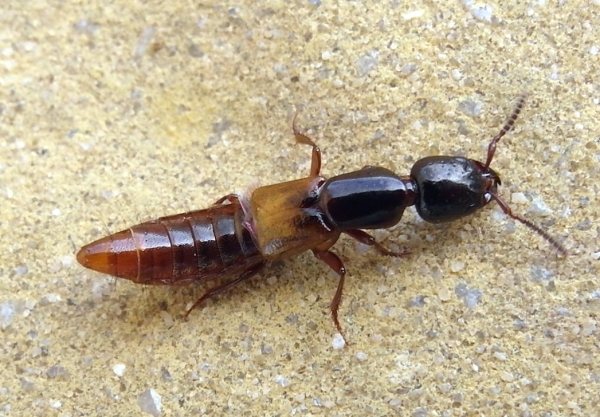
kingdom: Animalia
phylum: Arthropoda
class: Insecta
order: Coleoptera
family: Staphylinidae
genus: Megalinus
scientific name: Megalinus flavocinctus
